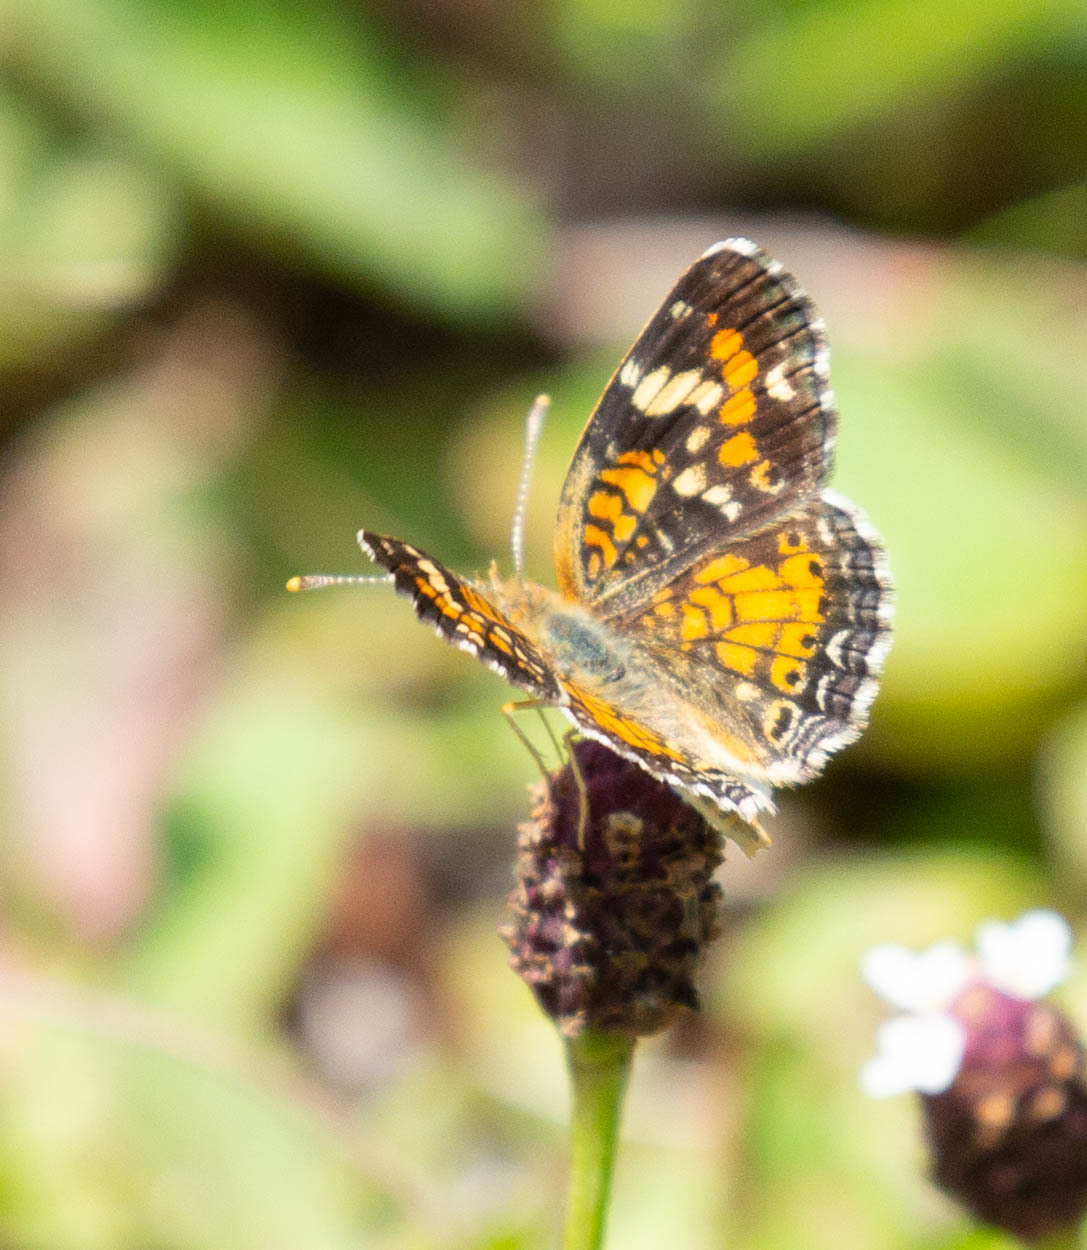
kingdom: Animalia
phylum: Arthropoda
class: Insecta
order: Lepidoptera
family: Nymphalidae
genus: Phyciodes
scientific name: Phyciodes phaon
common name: Phaon crescent
